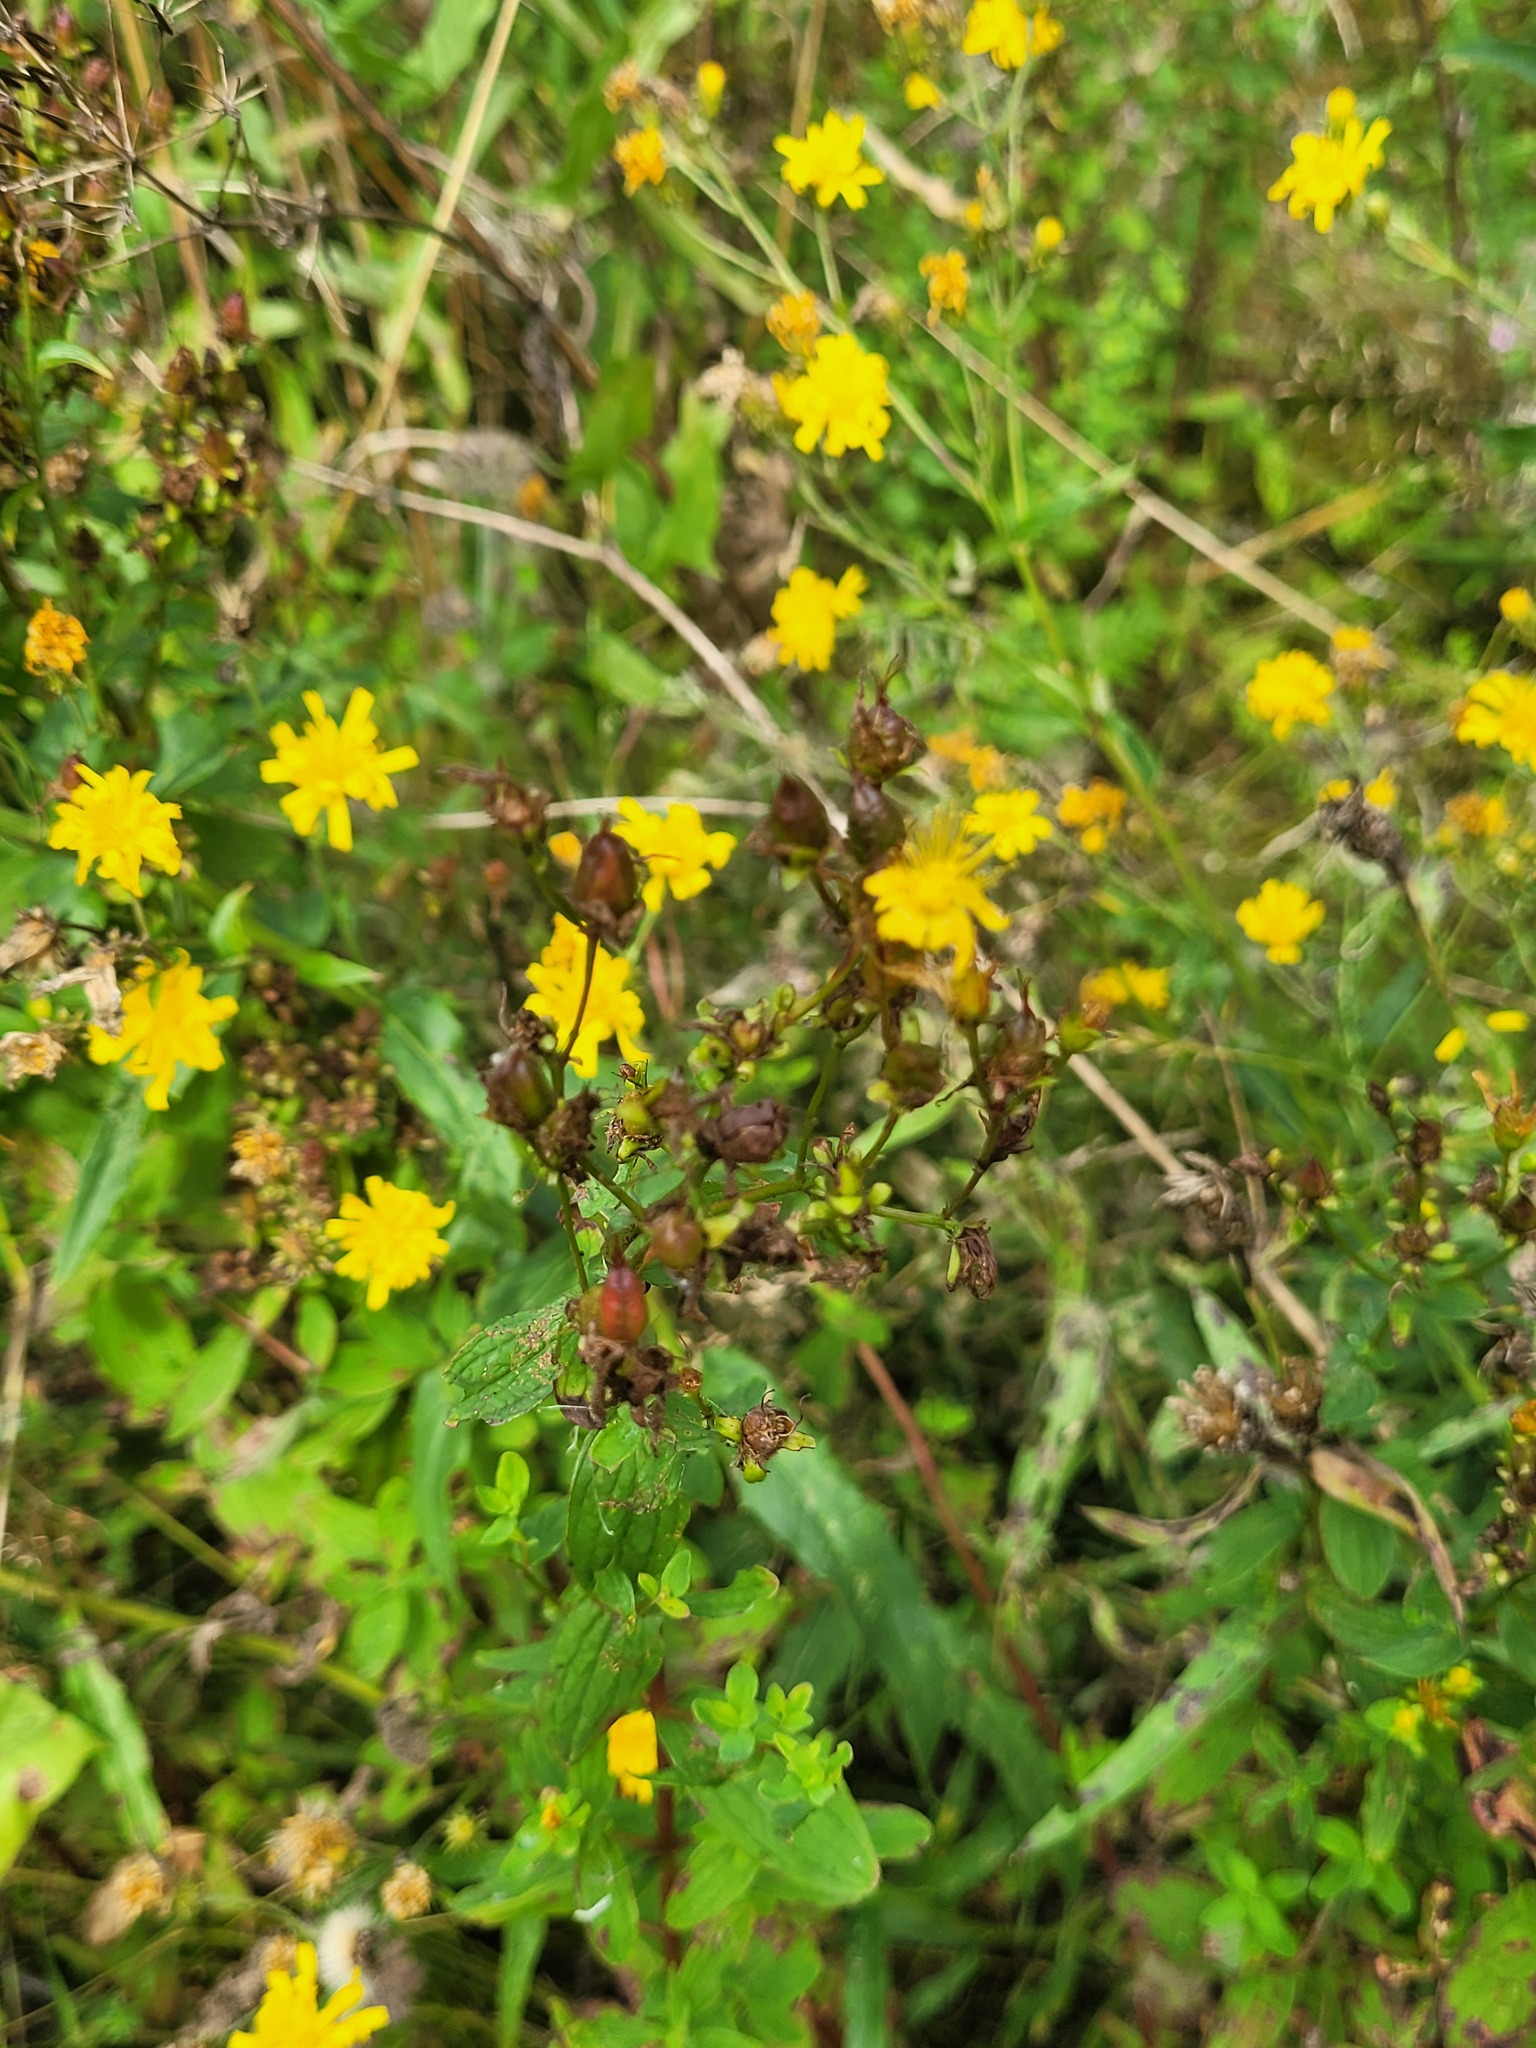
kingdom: Plantae
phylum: Tracheophyta
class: Magnoliopsida
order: Malpighiales
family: Hypericaceae
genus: Hypericum
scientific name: Hypericum maculatum
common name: Imperforate st. john's-wort
